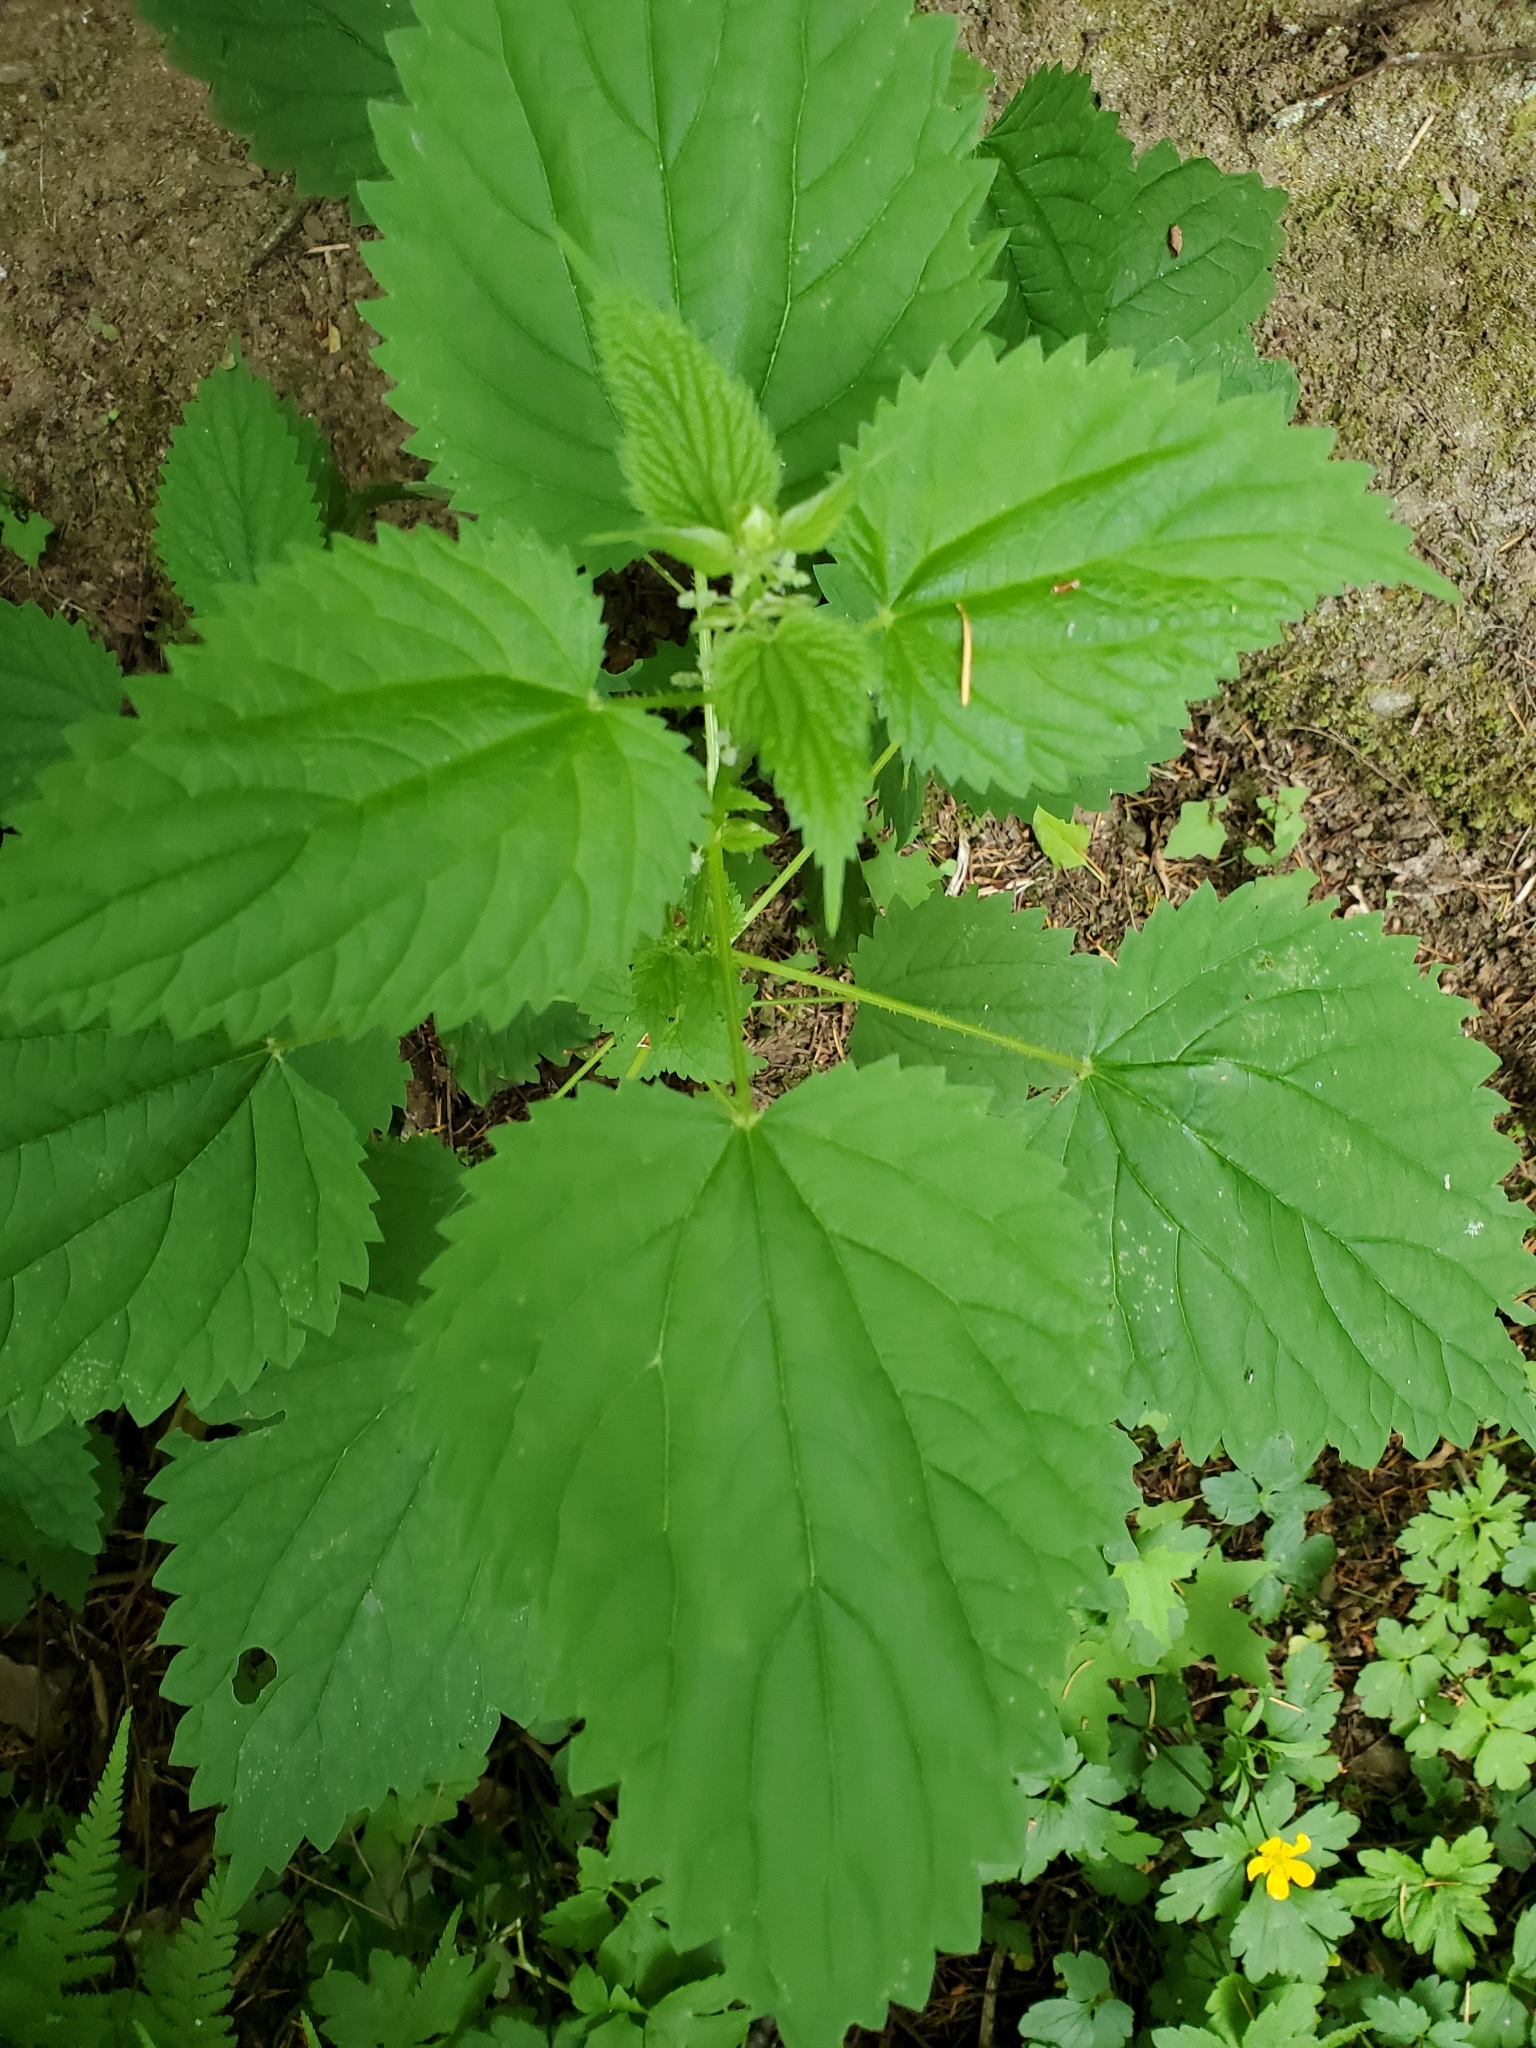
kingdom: Plantae
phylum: Tracheophyta
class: Magnoliopsida
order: Rosales
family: Urticaceae
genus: Urtica
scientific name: Urtica dioica
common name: Common nettle
